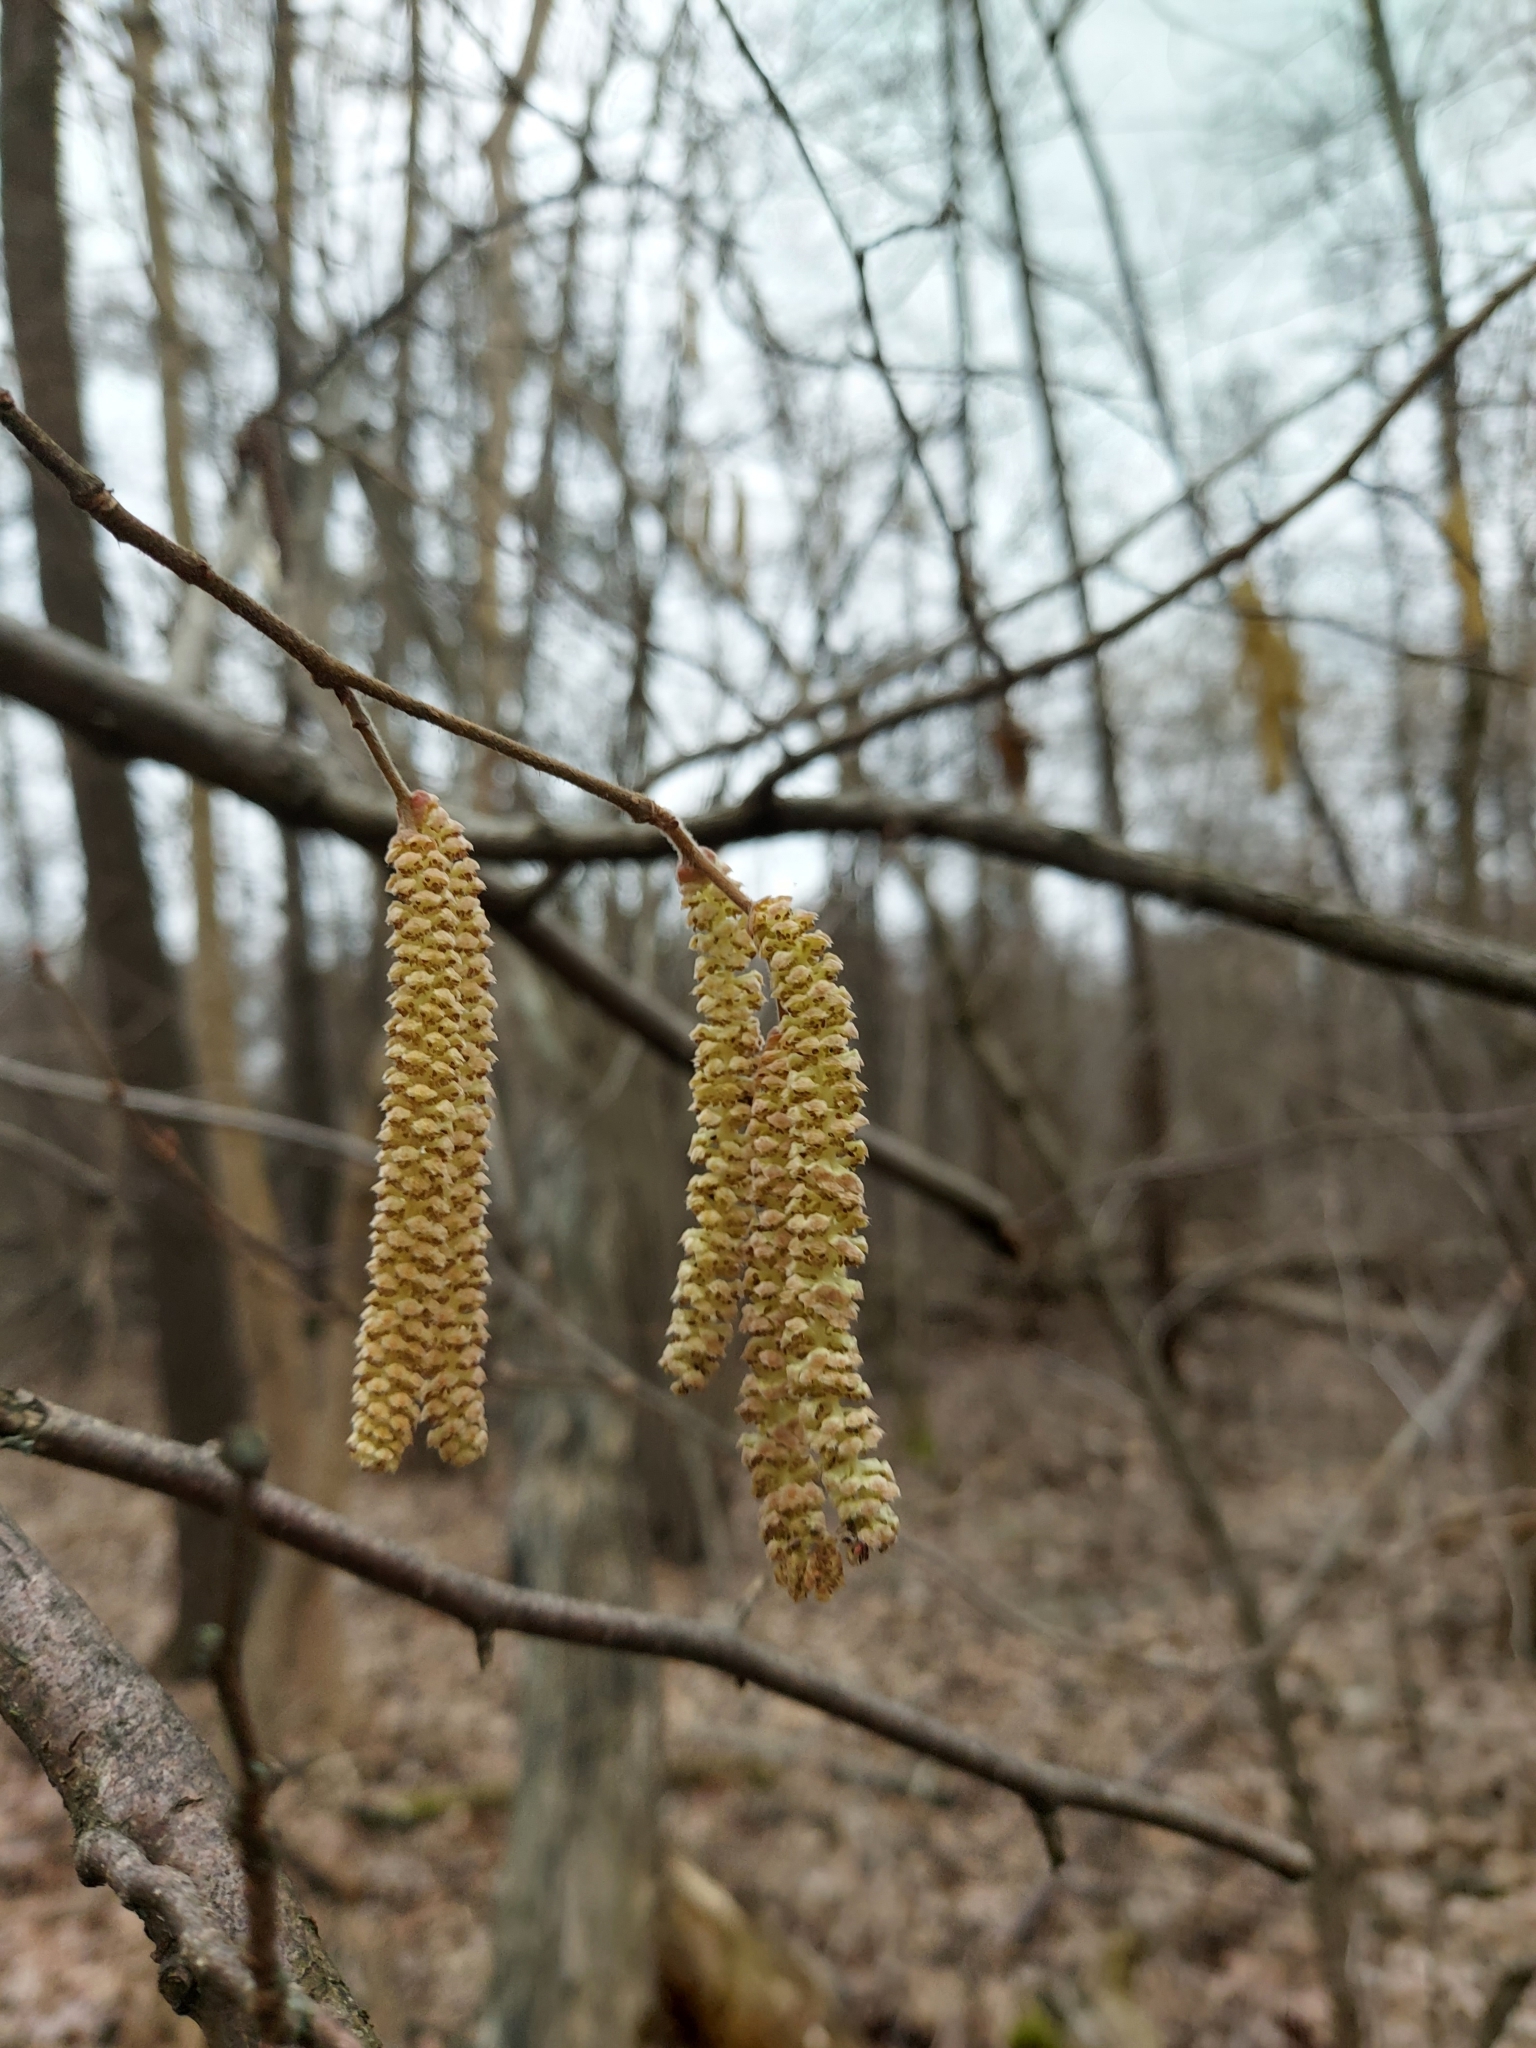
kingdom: Plantae
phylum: Tracheophyta
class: Magnoliopsida
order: Fagales
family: Betulaceae
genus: Corylus
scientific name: Corylus avellana
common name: European hazel
